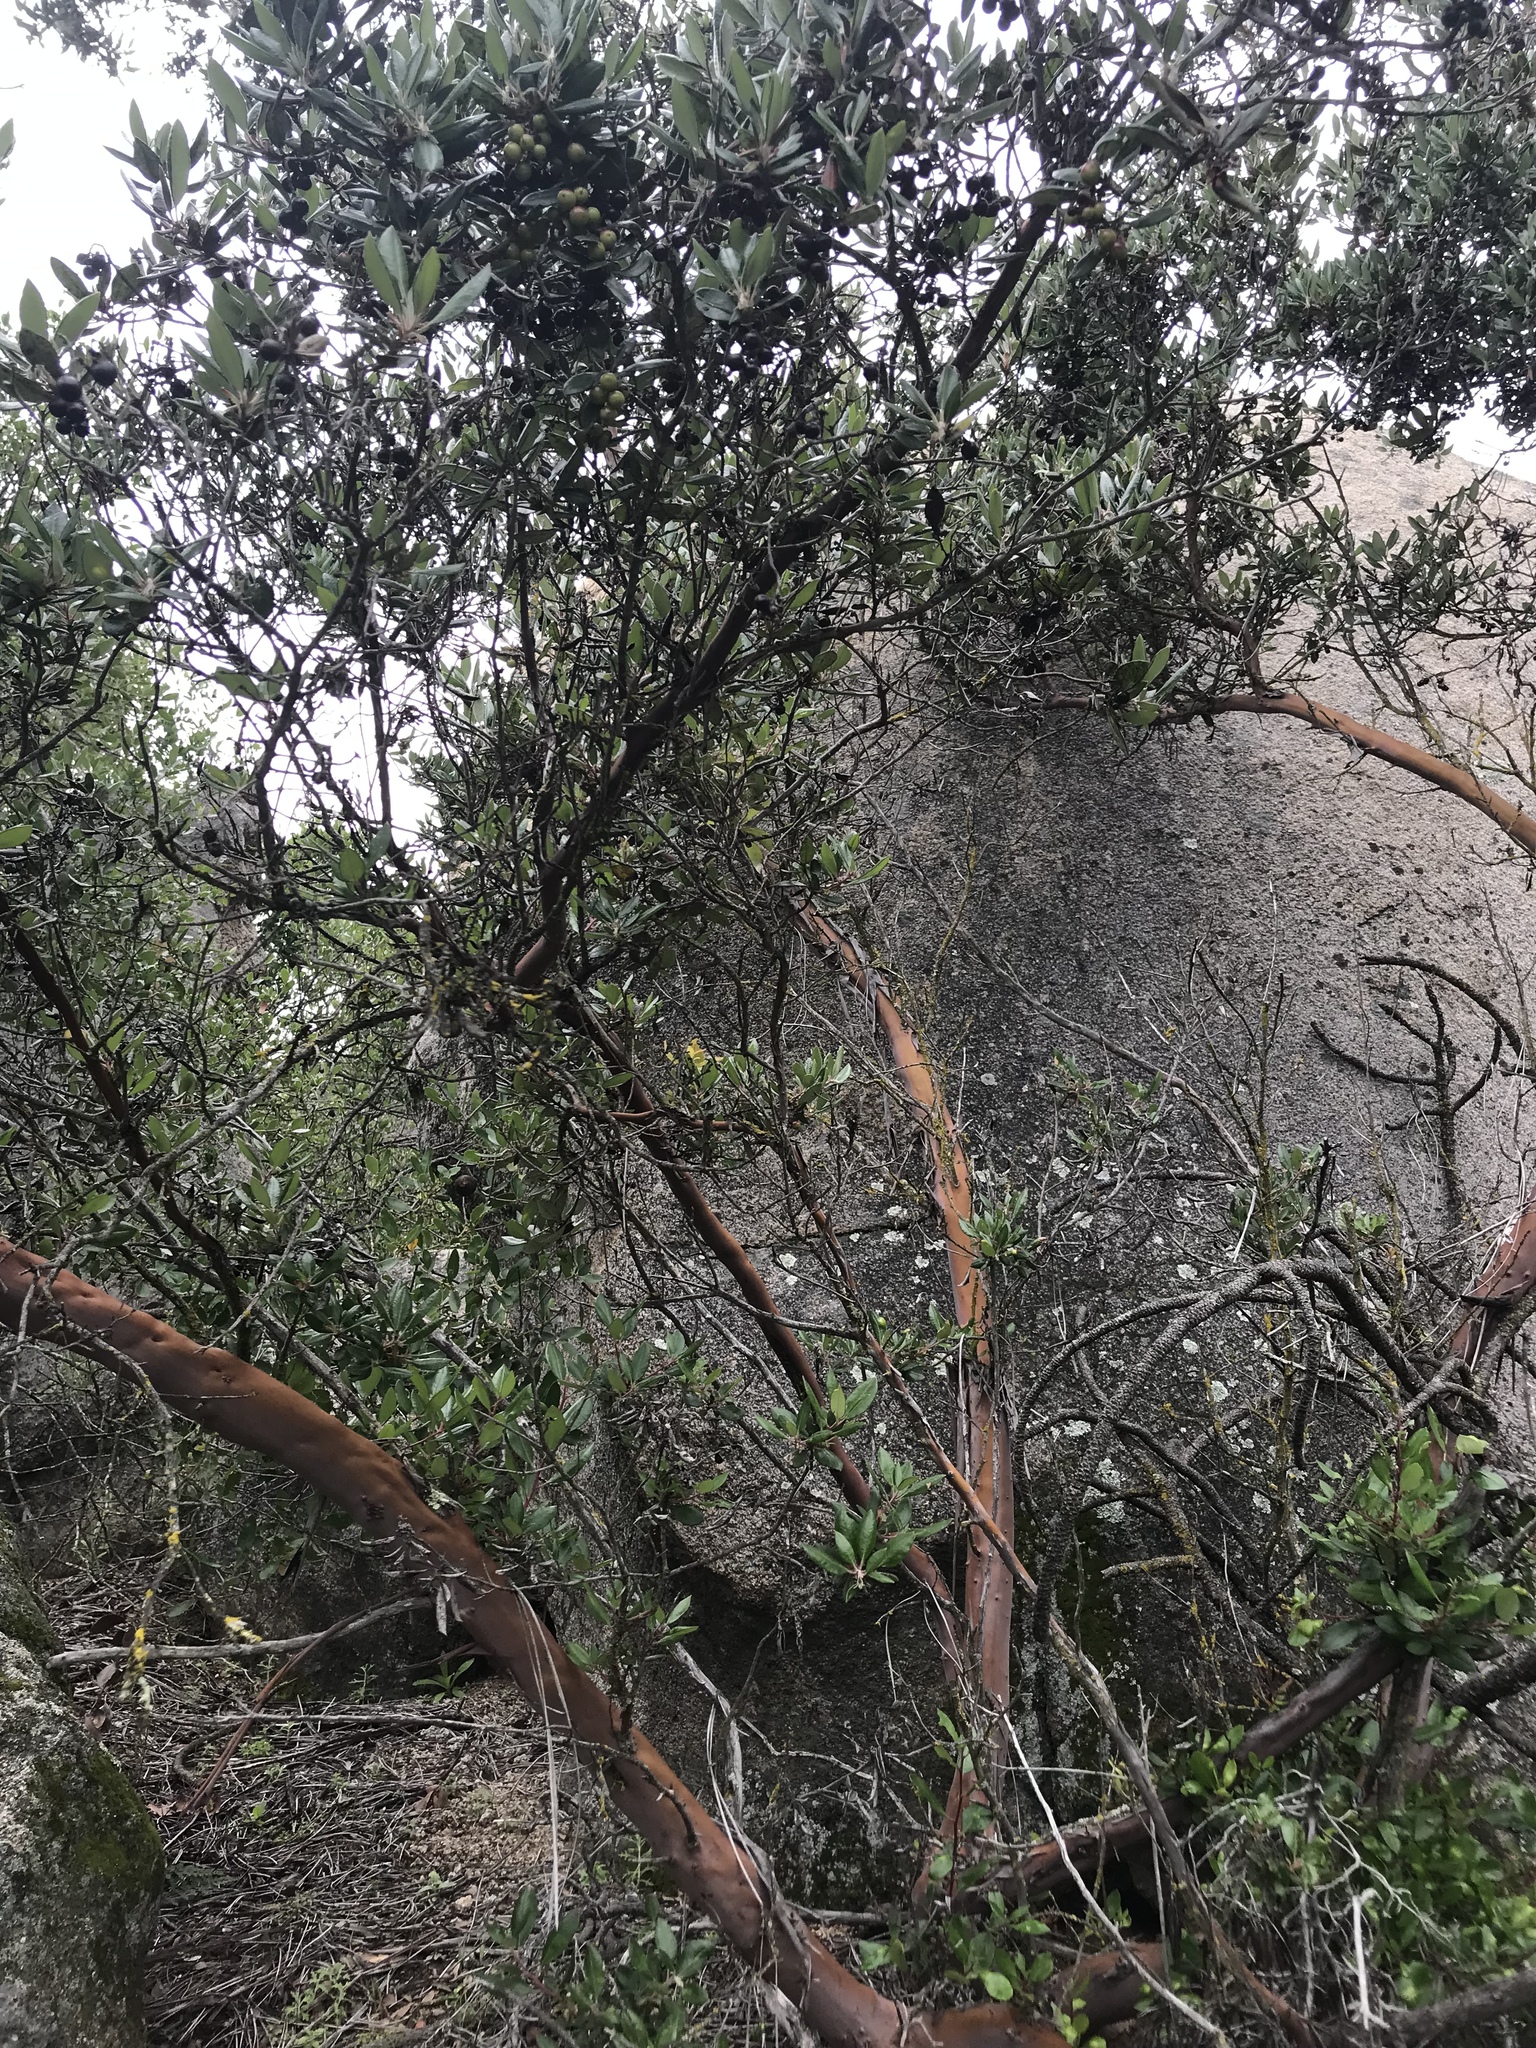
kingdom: Plantae
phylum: Tracheophyta
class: Magnoliopsida
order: Ericales
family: Ericaceae
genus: Arctostaphylos
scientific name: Arctostaphylos bicolor
